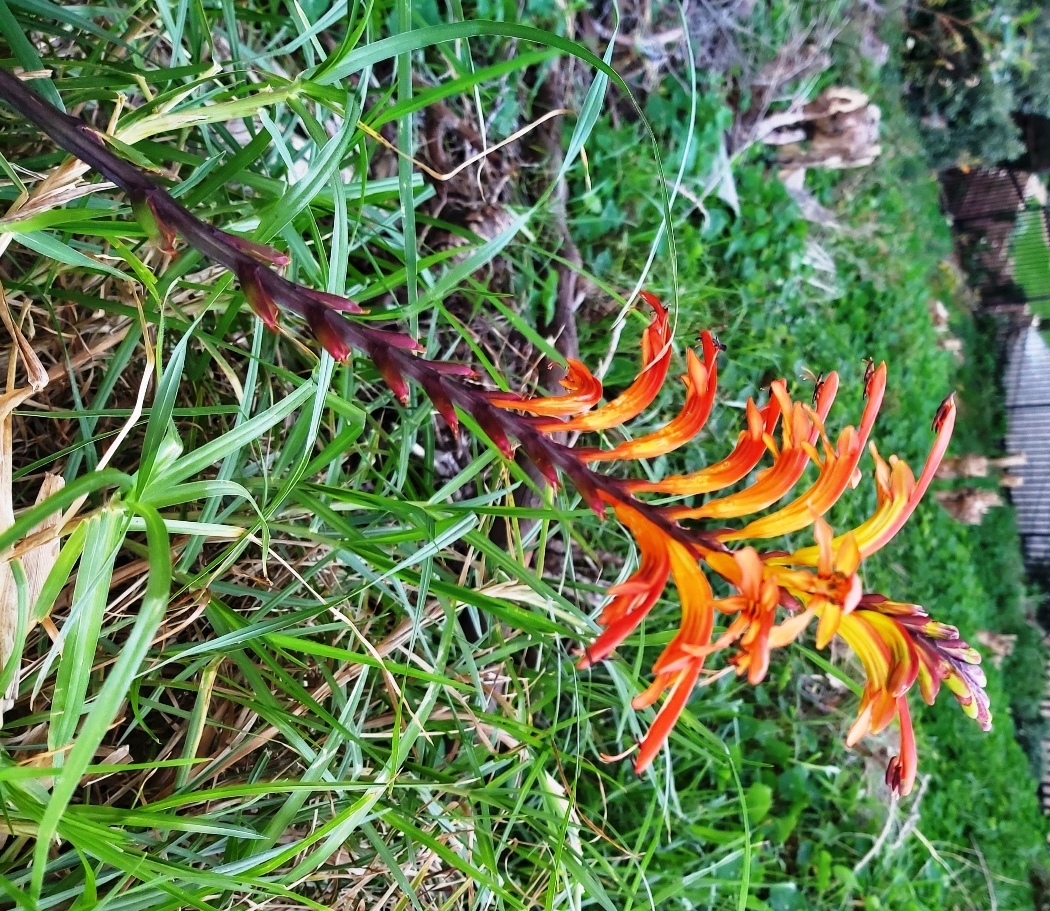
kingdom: Plantae
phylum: Tracheophyta
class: Liliopsida
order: Asparagales
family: Iridaceae
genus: Chasmanthe
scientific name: Chasmanthe floribunda
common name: African cornflag
